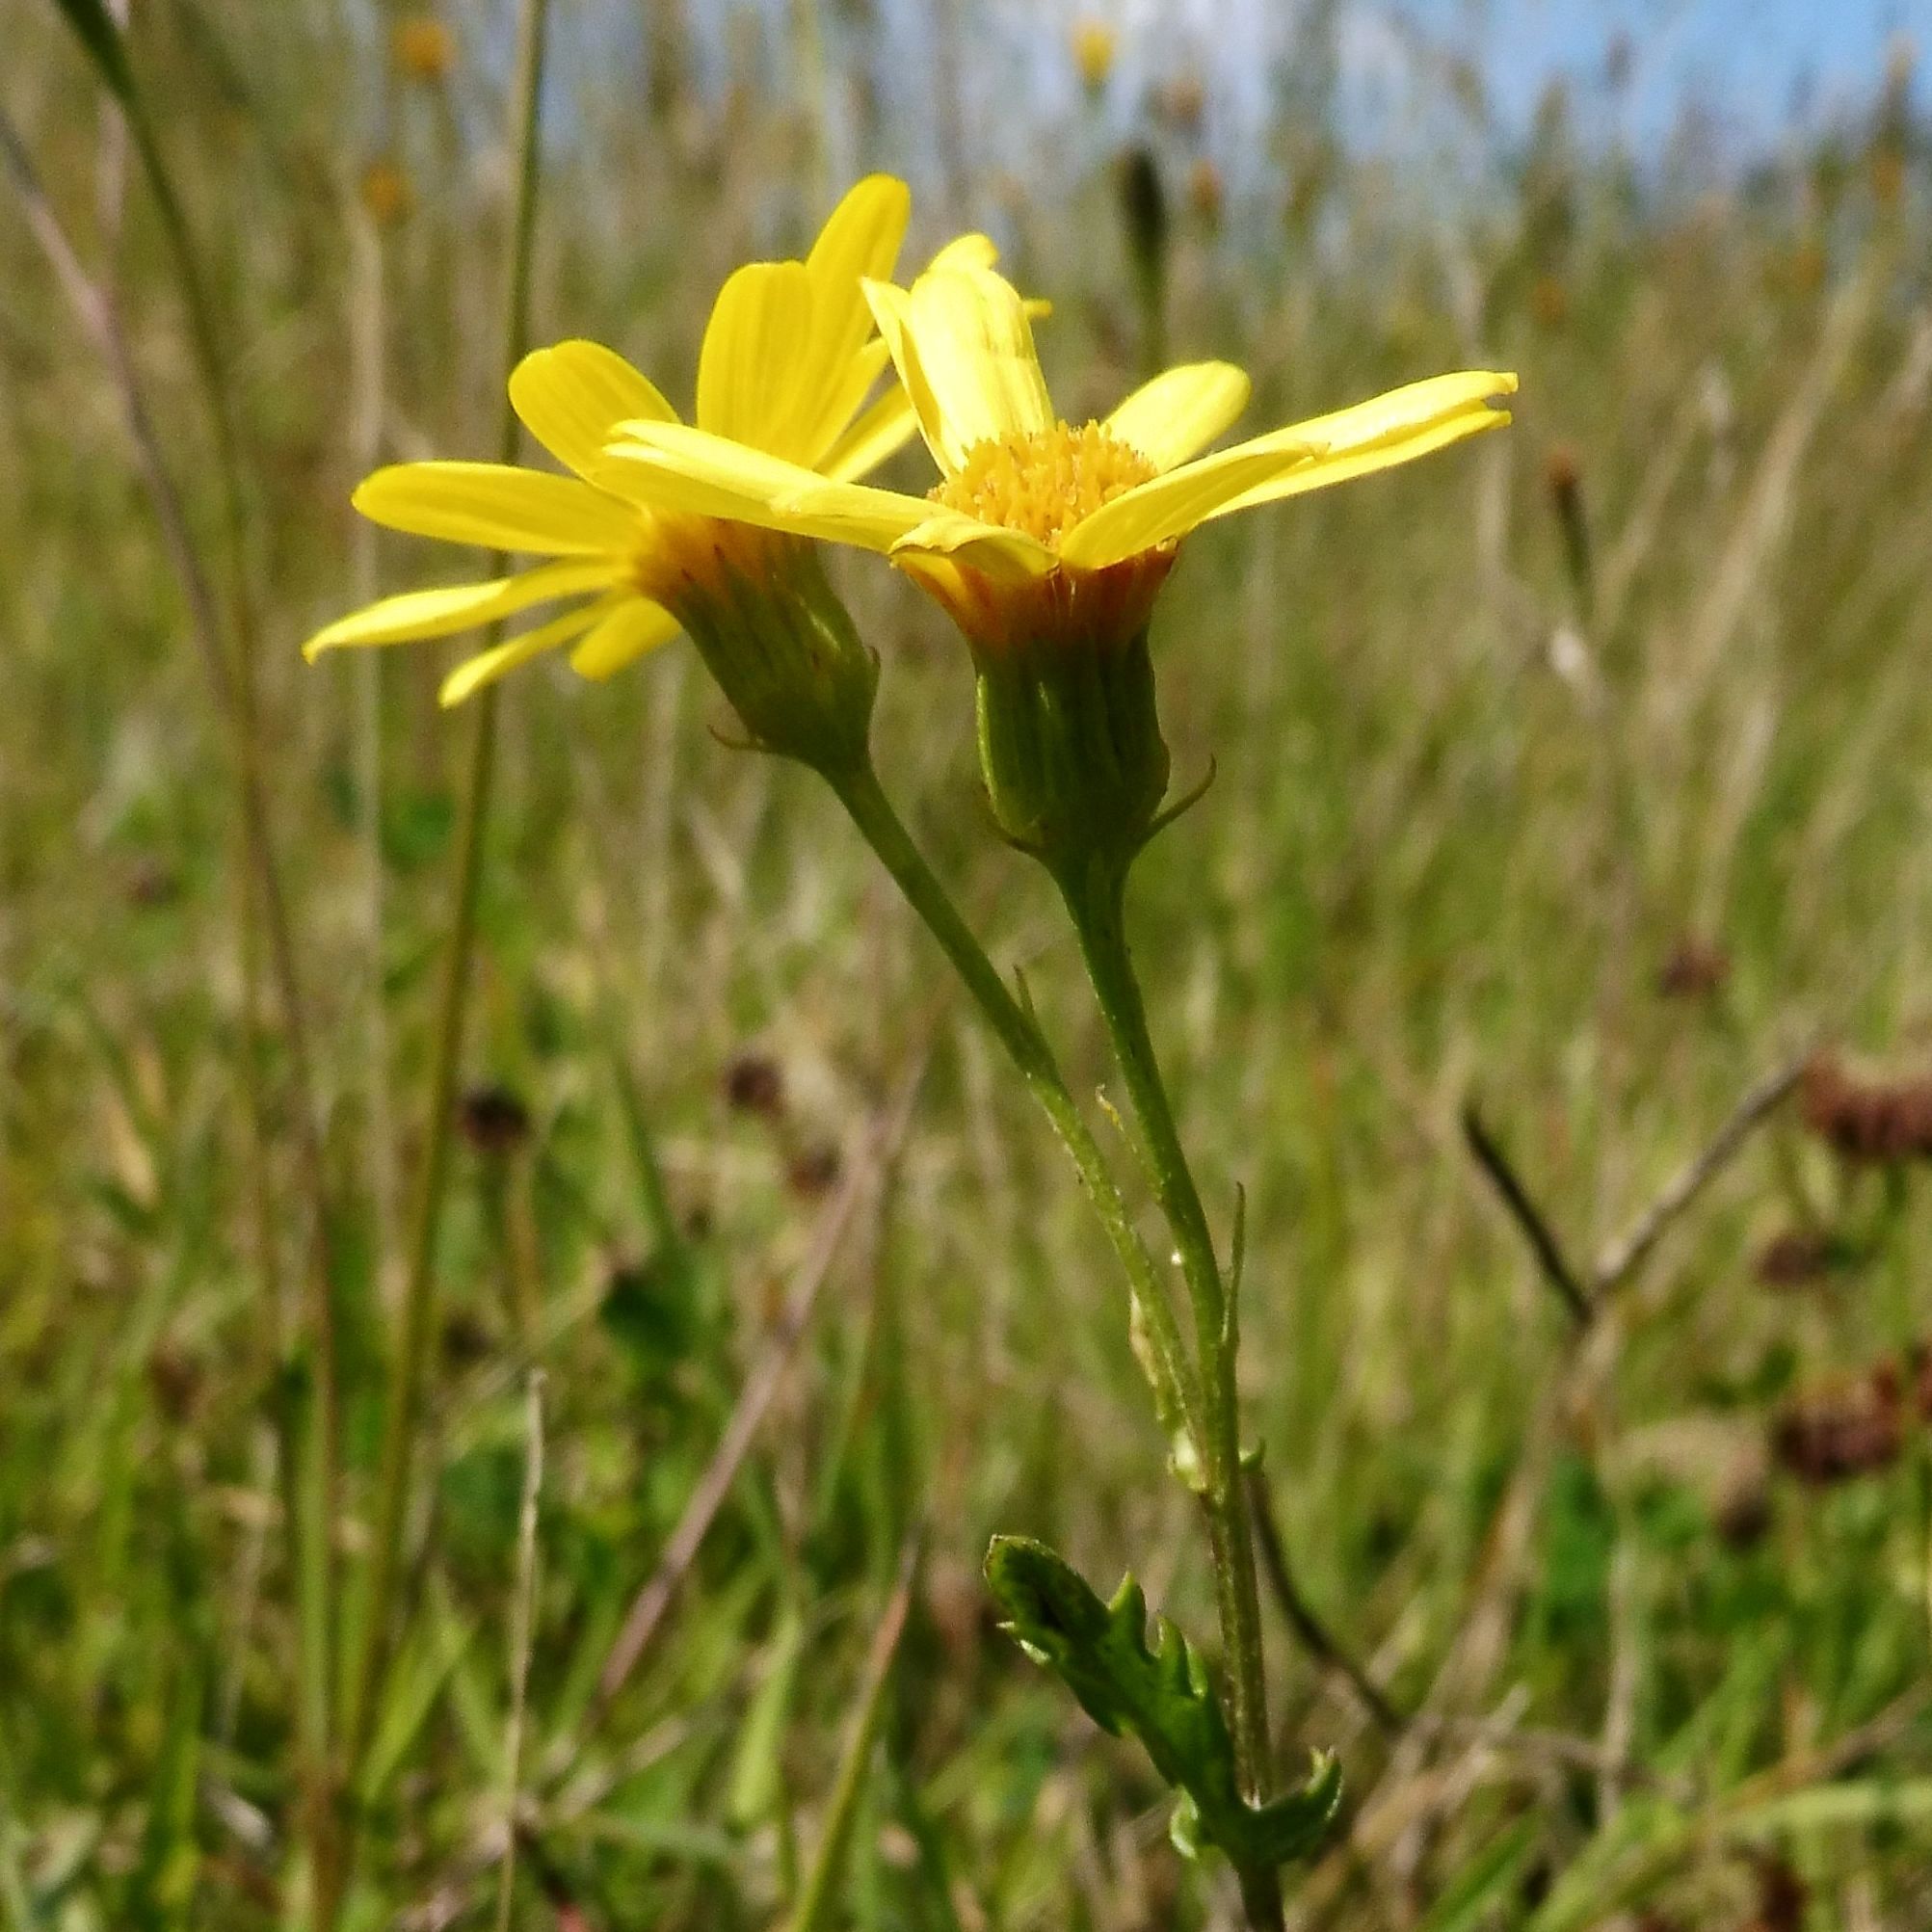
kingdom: Plantae
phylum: Tracheophyta
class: Magnoliopsida
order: Asterales
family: Asteraceae
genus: Jacobaea
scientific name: Jacobaea aquatica
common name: Water ragwort
